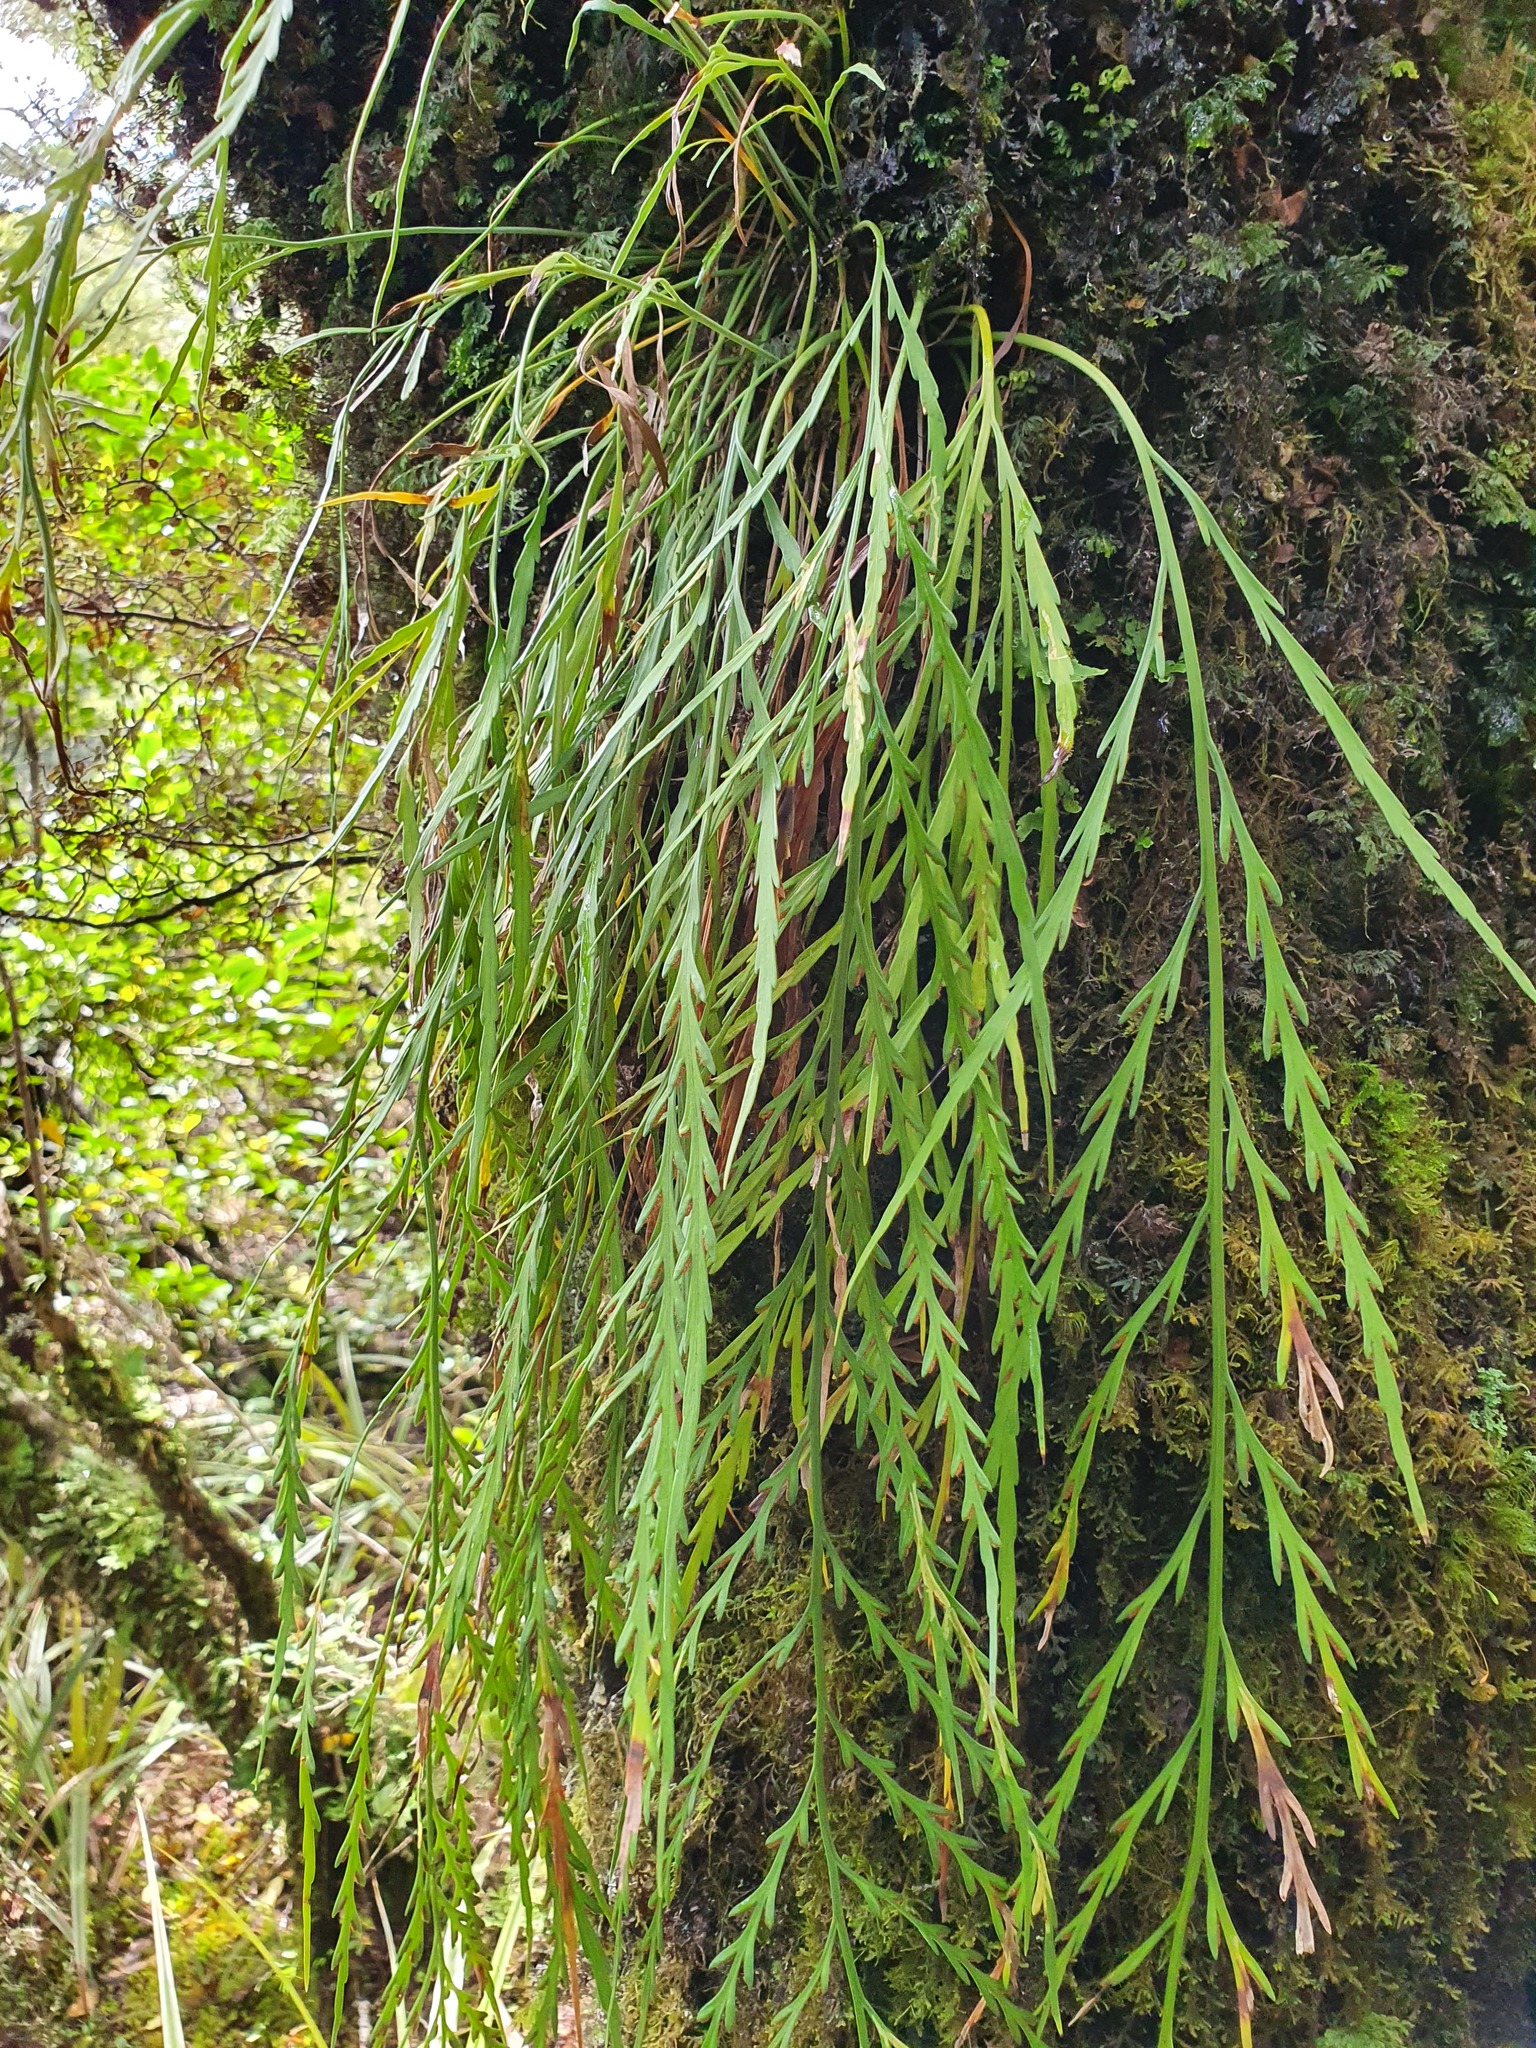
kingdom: Plantae
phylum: Tracheophyta
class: Polypodiopsida
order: Polypodiales
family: Aspleniaceae
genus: Asplenium
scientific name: Asplenium flaccidum
